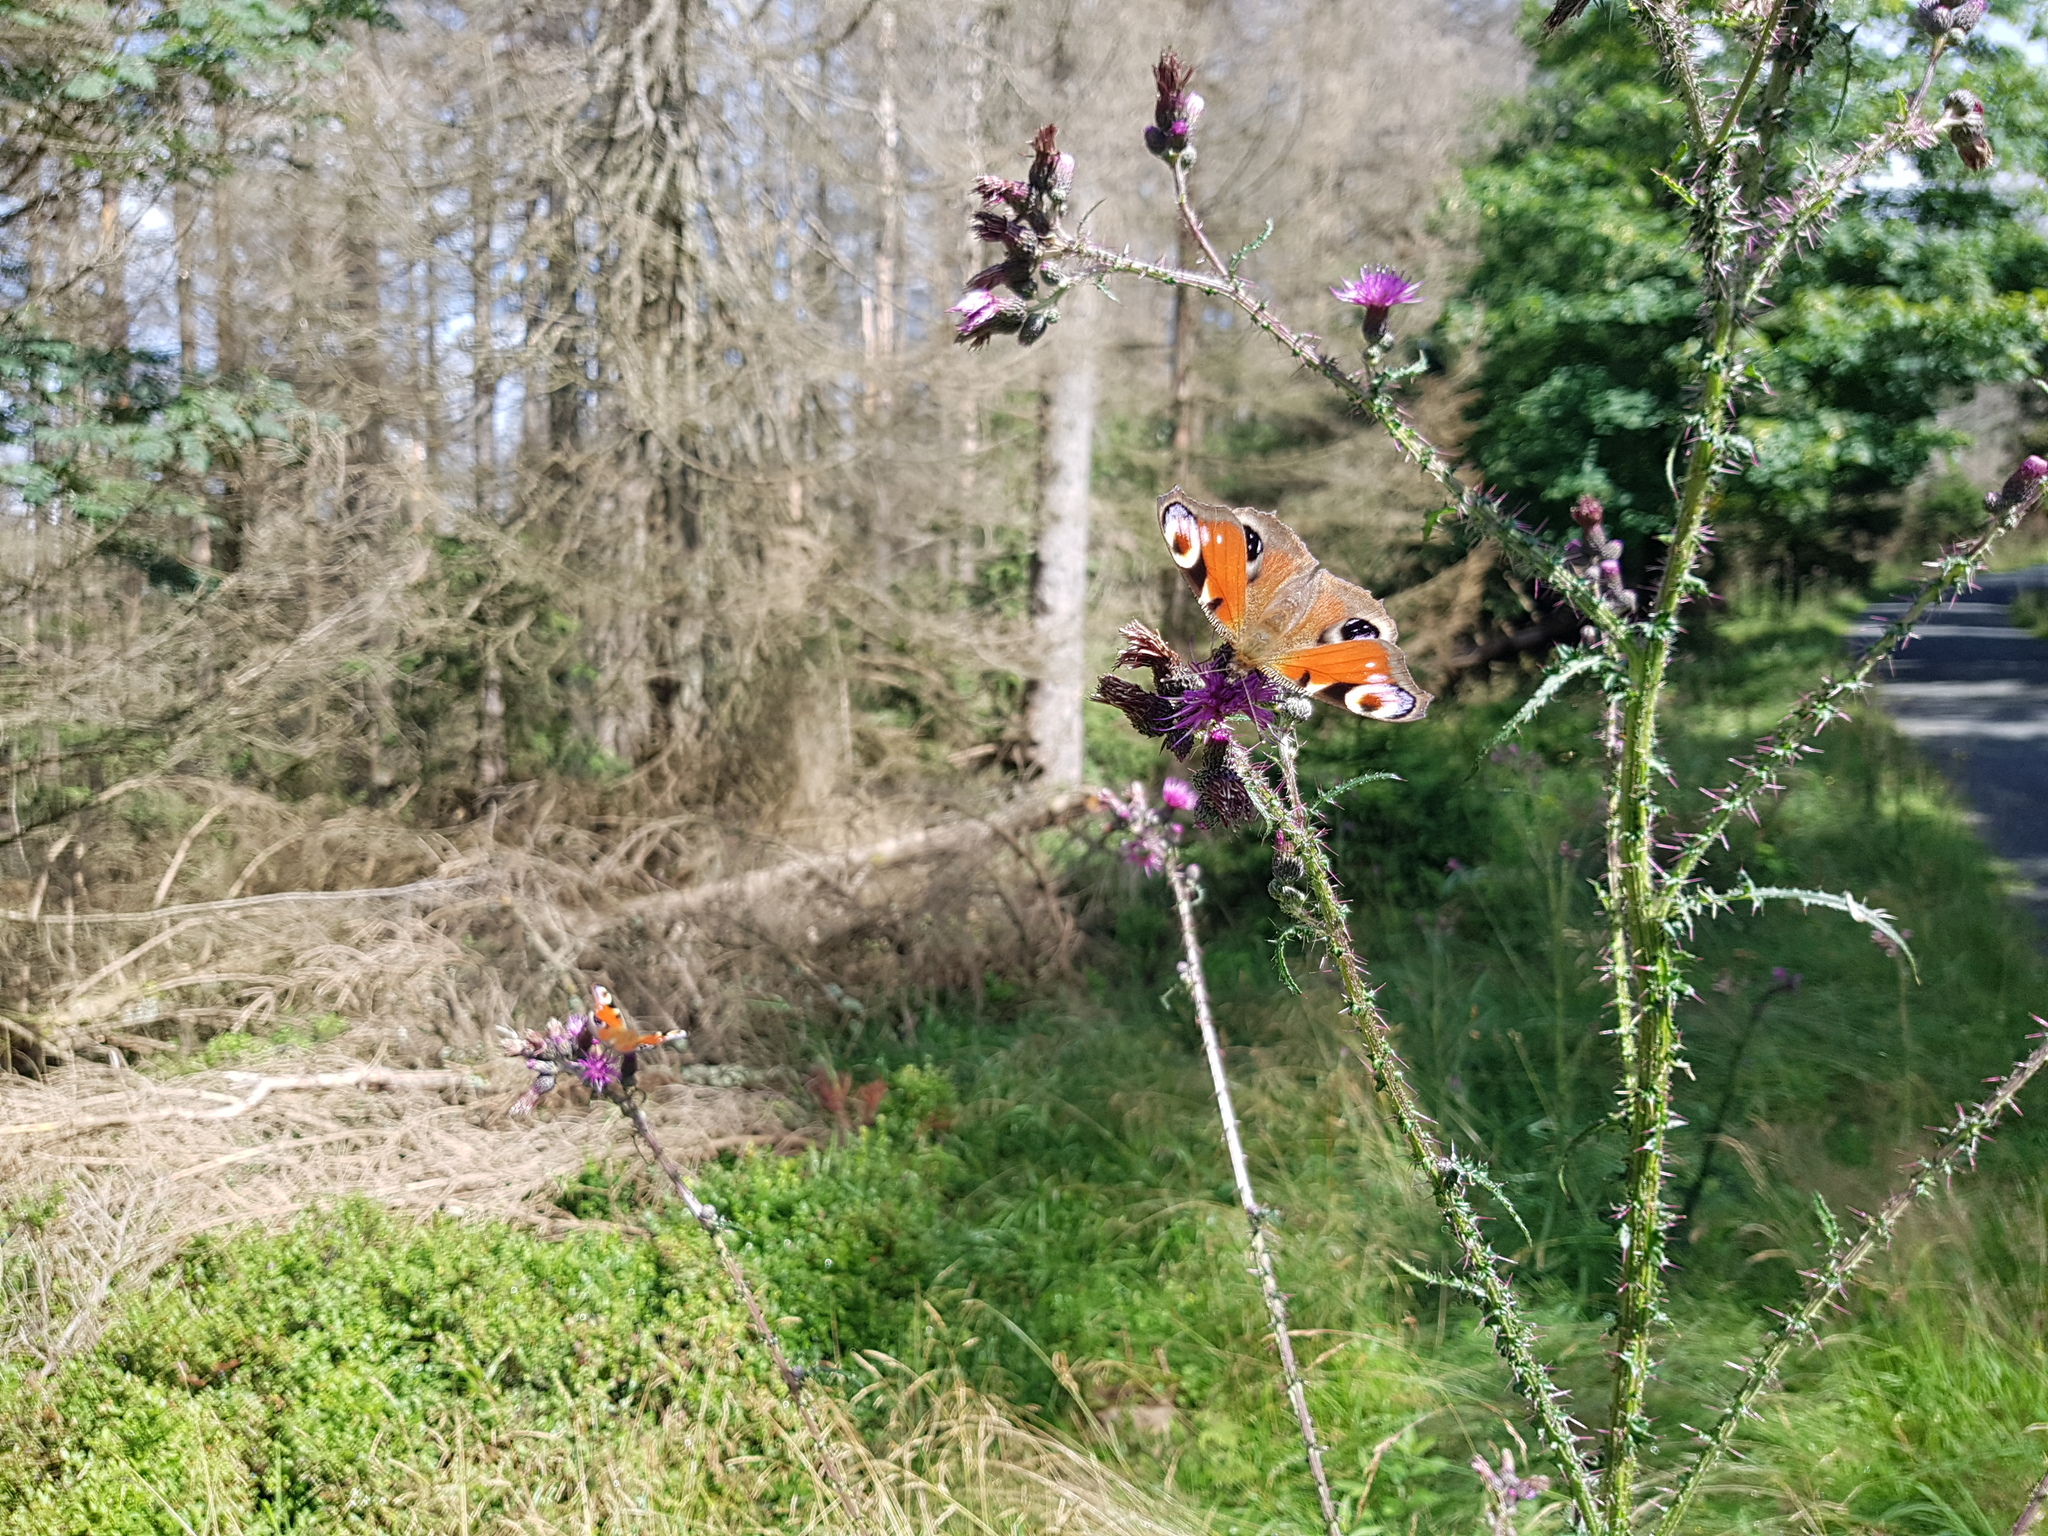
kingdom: Animalia
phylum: Arthropoda
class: Insecta
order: Lepidoptera
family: Nymphalidae
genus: Aglais
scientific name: Aglais io
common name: Peacock
